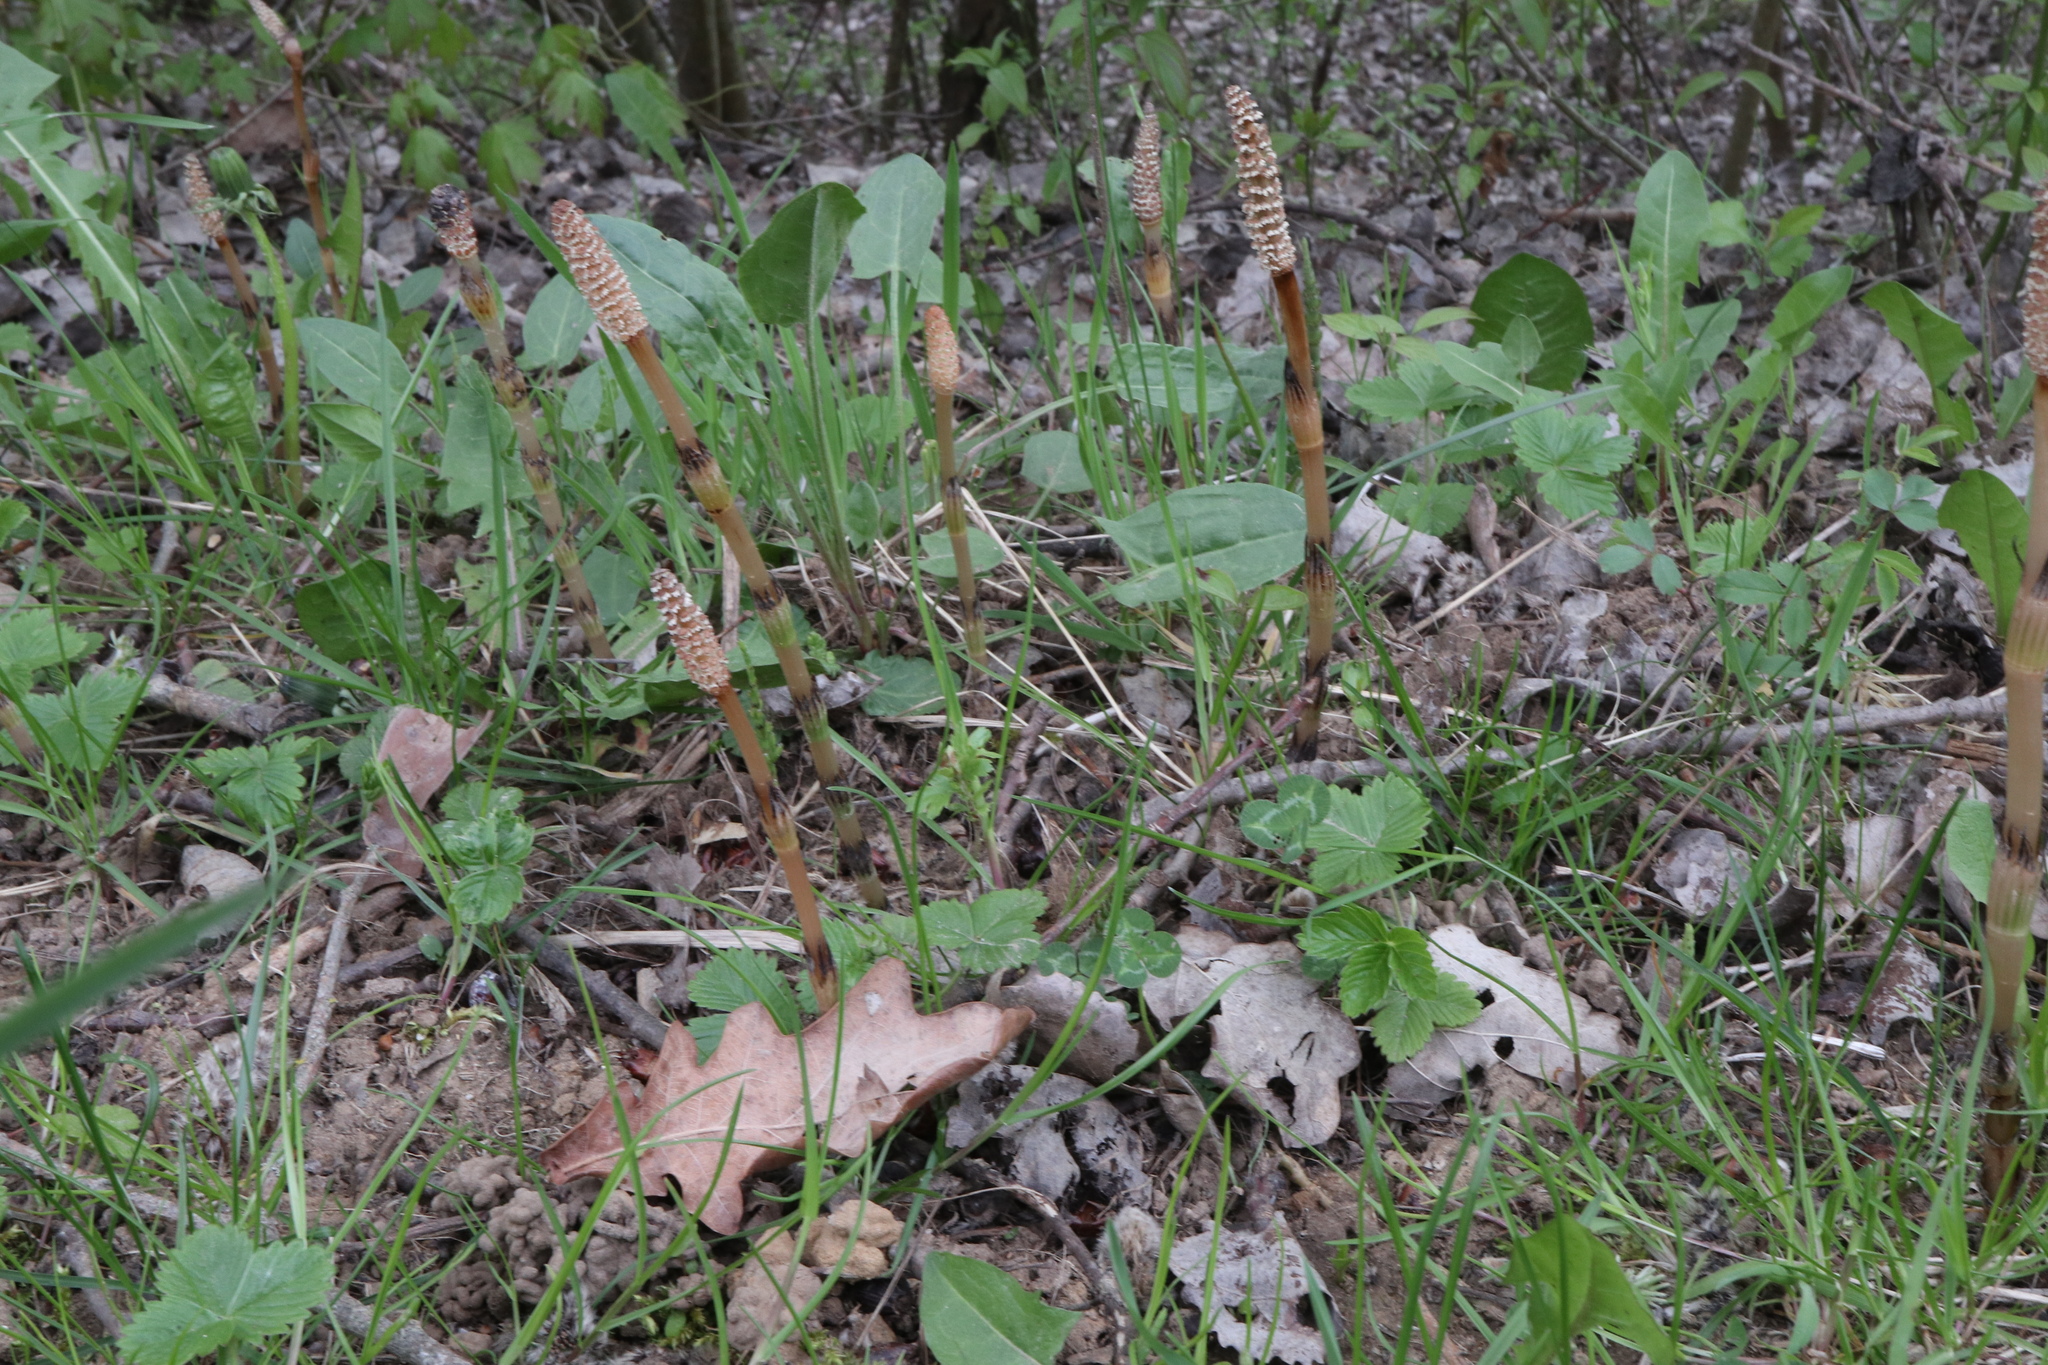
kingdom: Plantae
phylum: Tracheophyta
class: Polypodiopsida
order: Equisetales
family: Equisetaceae
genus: Equisetum
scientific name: Equisetum arvense
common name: Field horsetail
